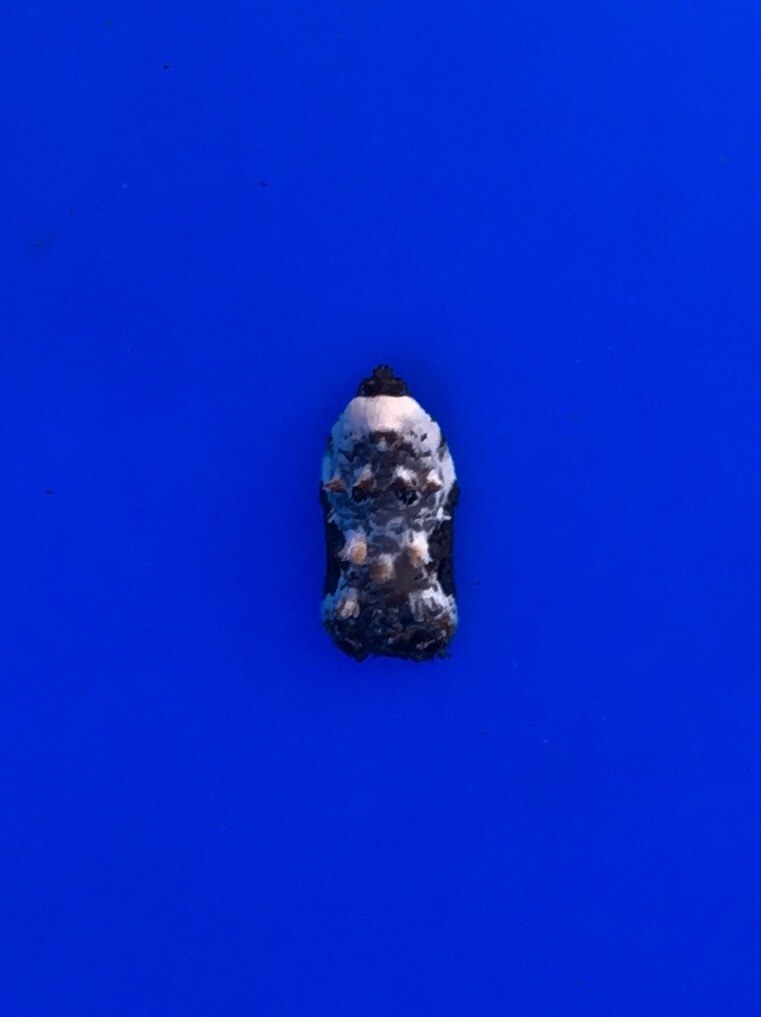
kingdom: Animalia
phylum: Arthropoda
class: Insecta
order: Lepidoptera
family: Tortricidae
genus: Acleris
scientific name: Acleris nivisellana
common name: Snowy-shouldered acleris moth
